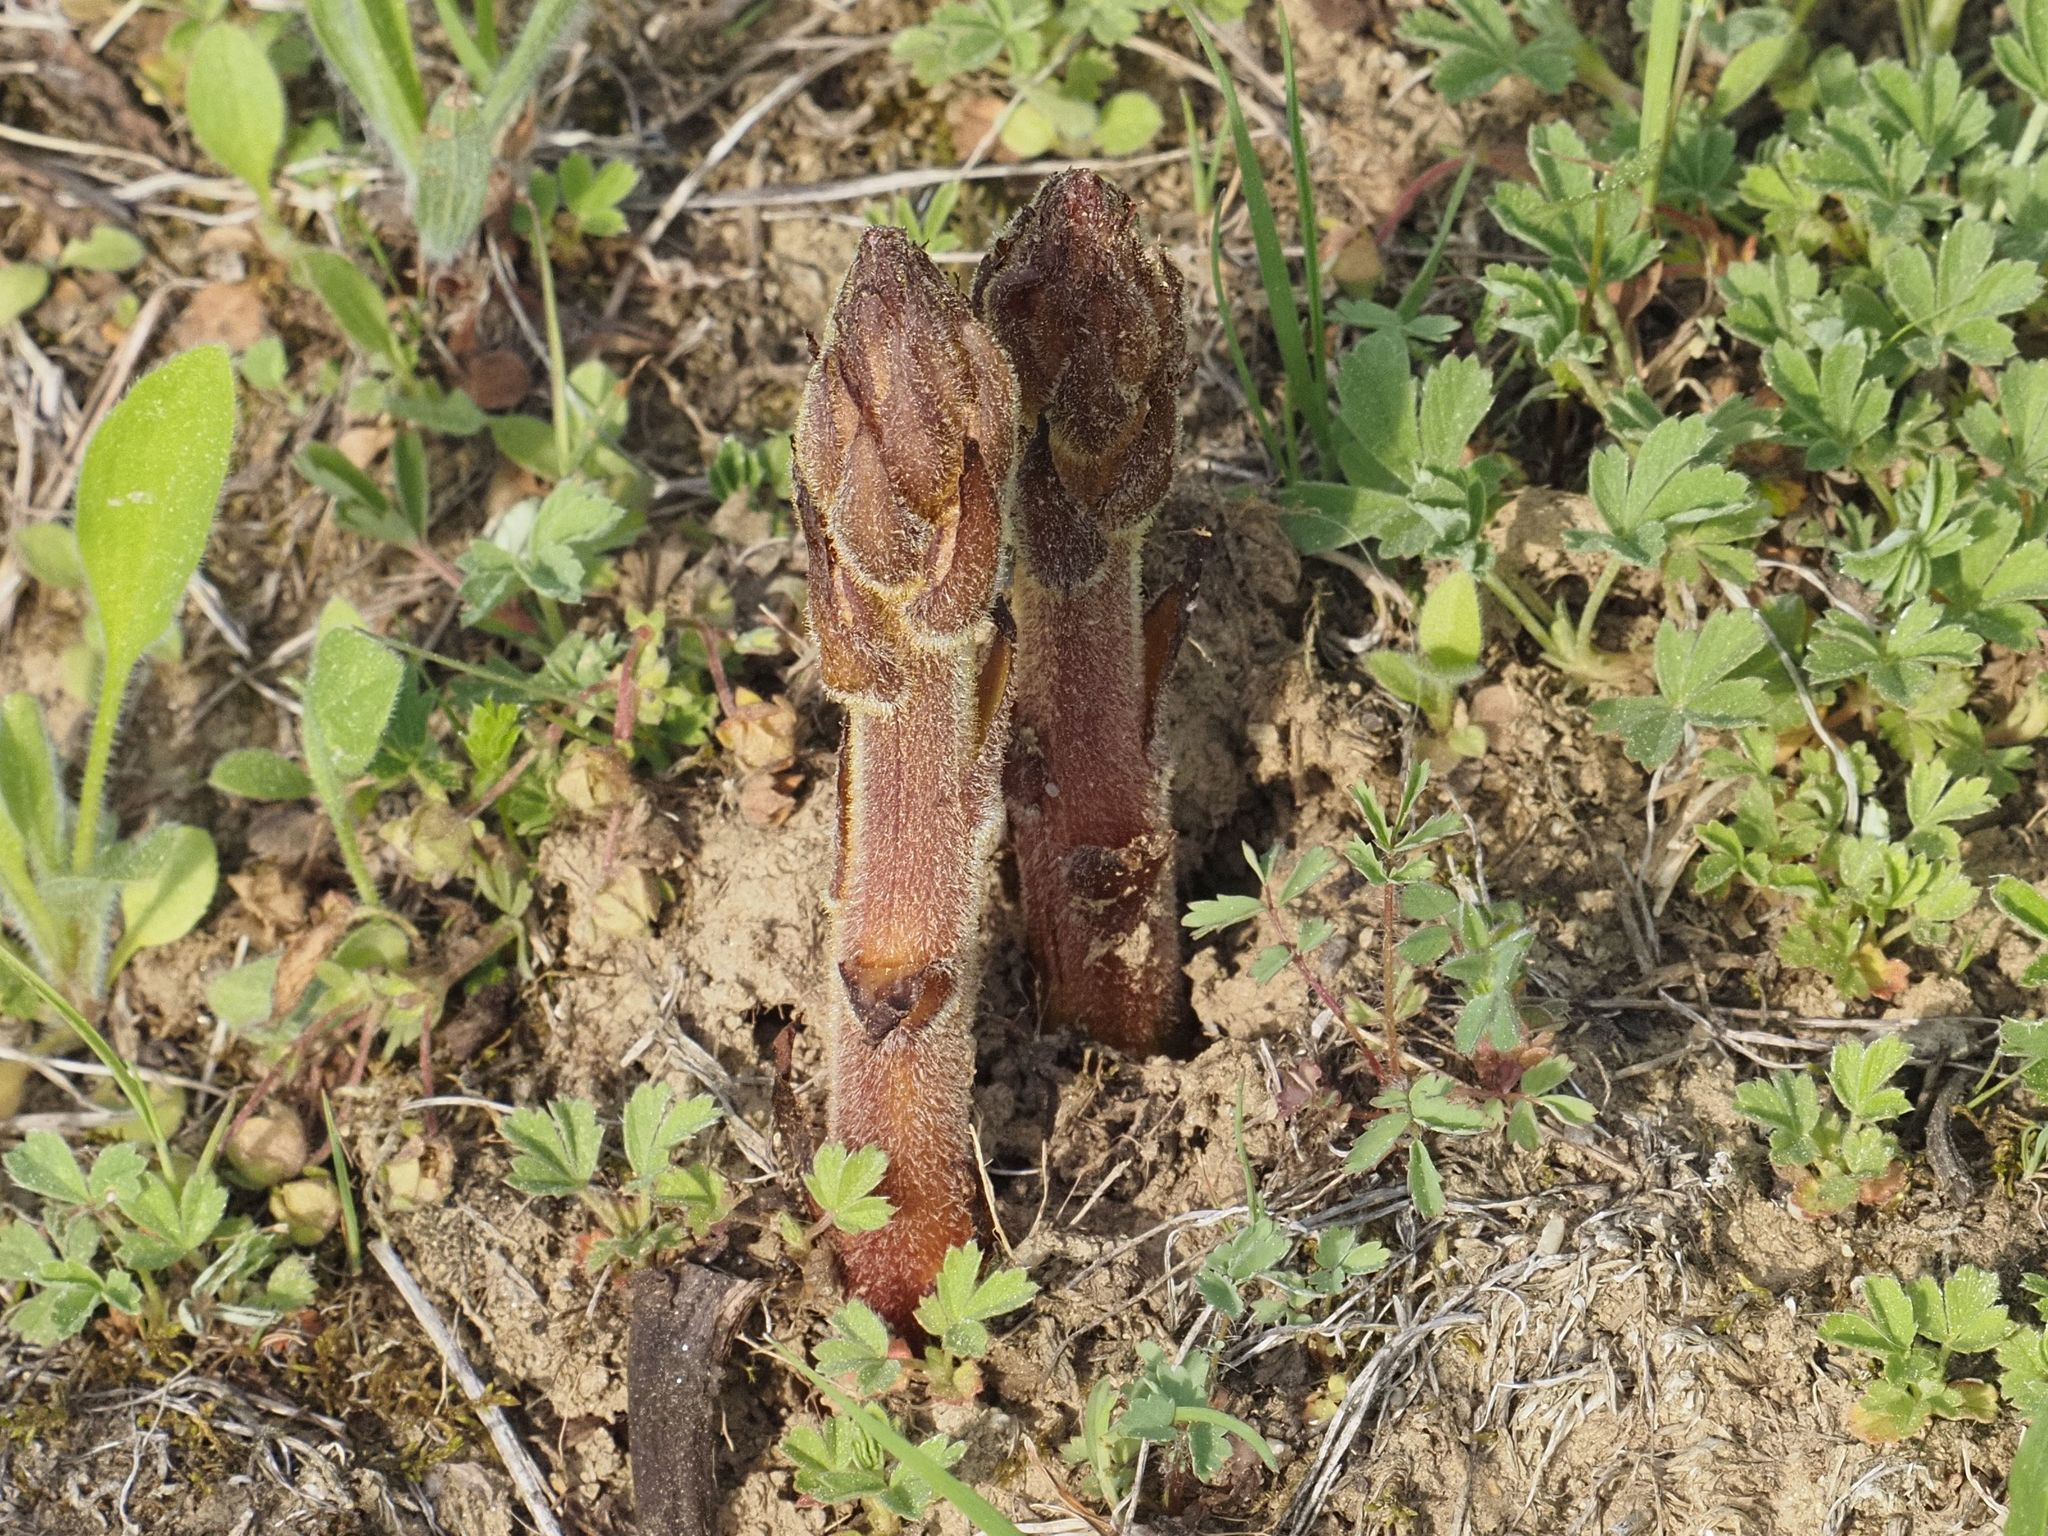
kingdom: Animalia
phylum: Arthropoda
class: Insecta
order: Diptera
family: Psilidae
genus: Chyliza
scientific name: Chyliza extenuata
